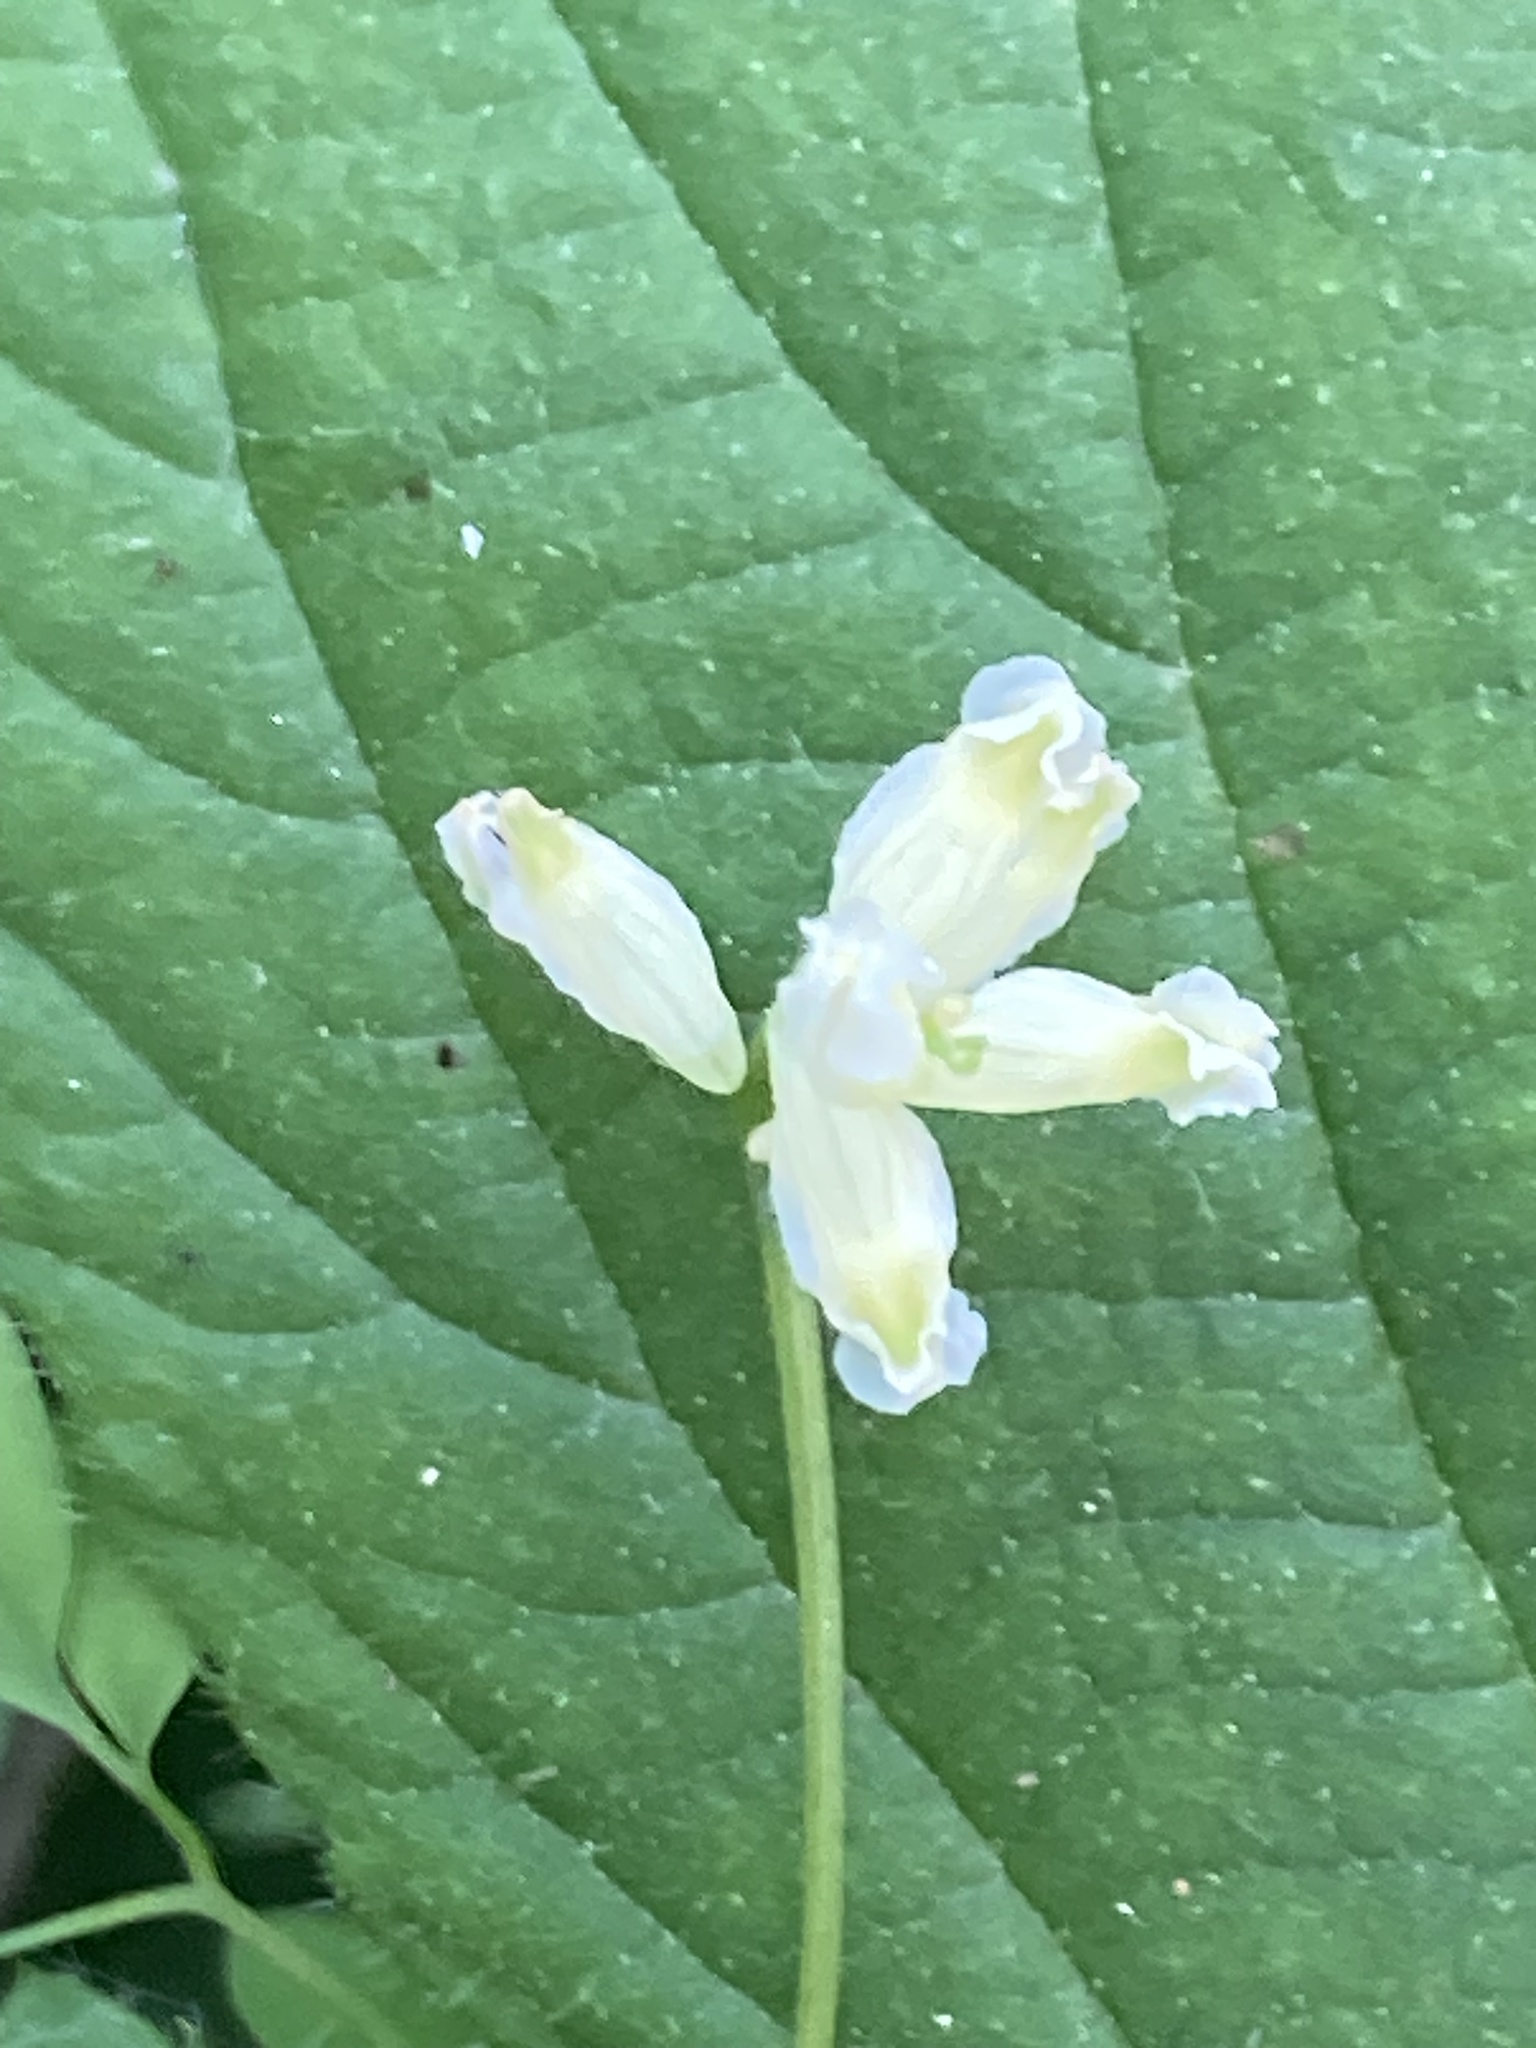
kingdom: Plantae
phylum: Tracheophyta
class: Magnoliopsida
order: Ranunculales
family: Papaveraceae
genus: Ceratocapnos
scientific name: Ceratocapnos claviculata
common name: Climbing corydalis
